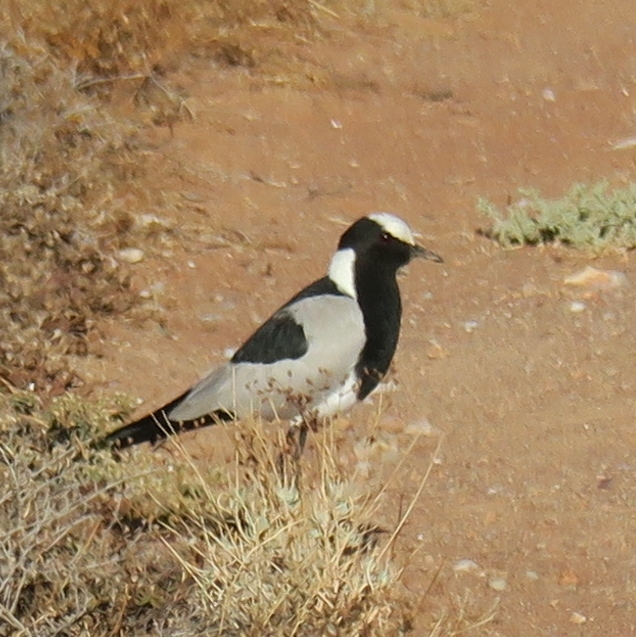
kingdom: Animalia
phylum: Chordata
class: Aves
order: Charadriiformes
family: Charadriidae
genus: Vanellus
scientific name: Vanellus armatus
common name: Blacksmith lapwing
